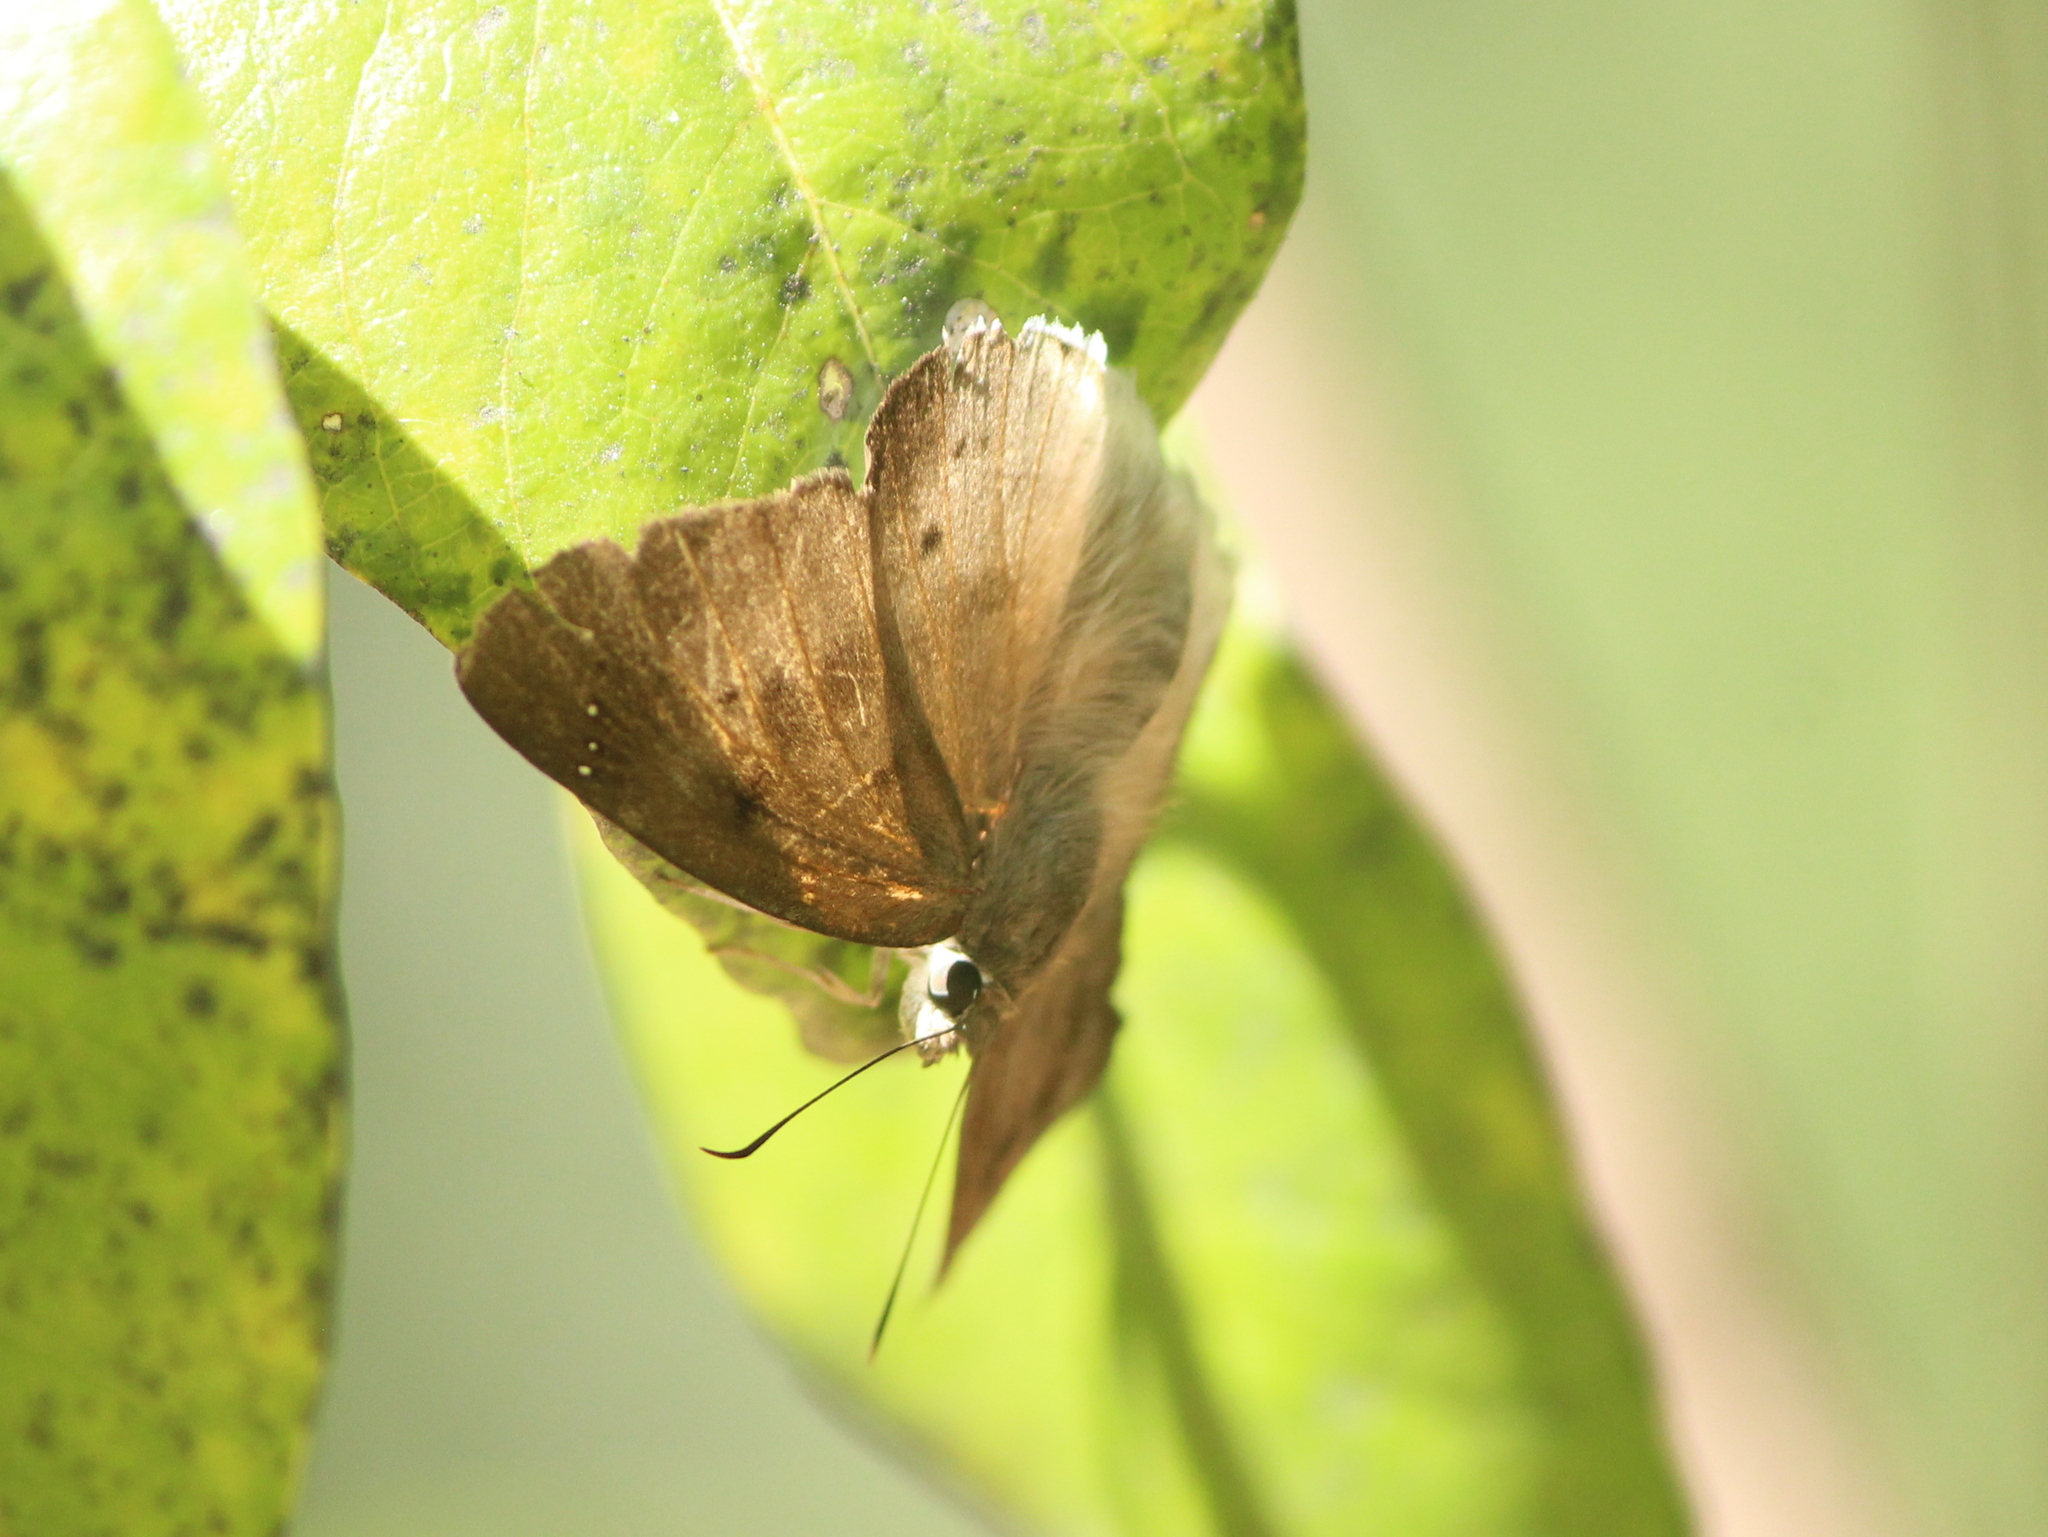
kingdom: Animalia
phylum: Arthropoda
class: Insecta
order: Lepidoptera
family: Hesperiidae
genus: Tagiades
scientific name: Tagiades japetus
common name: Pied flat
